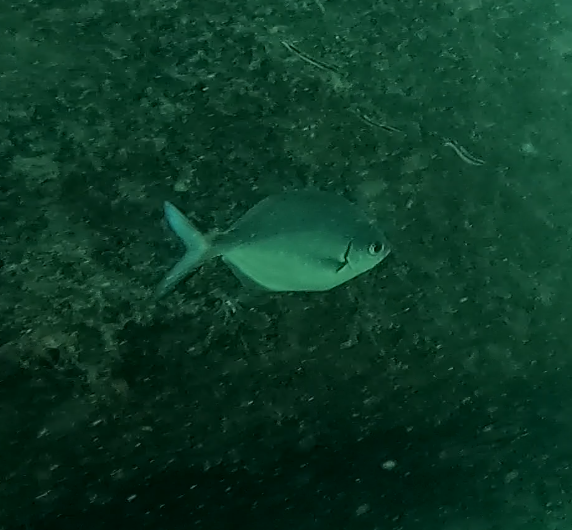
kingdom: Animalia
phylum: Chordata
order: Perciformes
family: Kyphosidae
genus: Scorpis
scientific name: Scorpis lineolata
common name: Sweep
